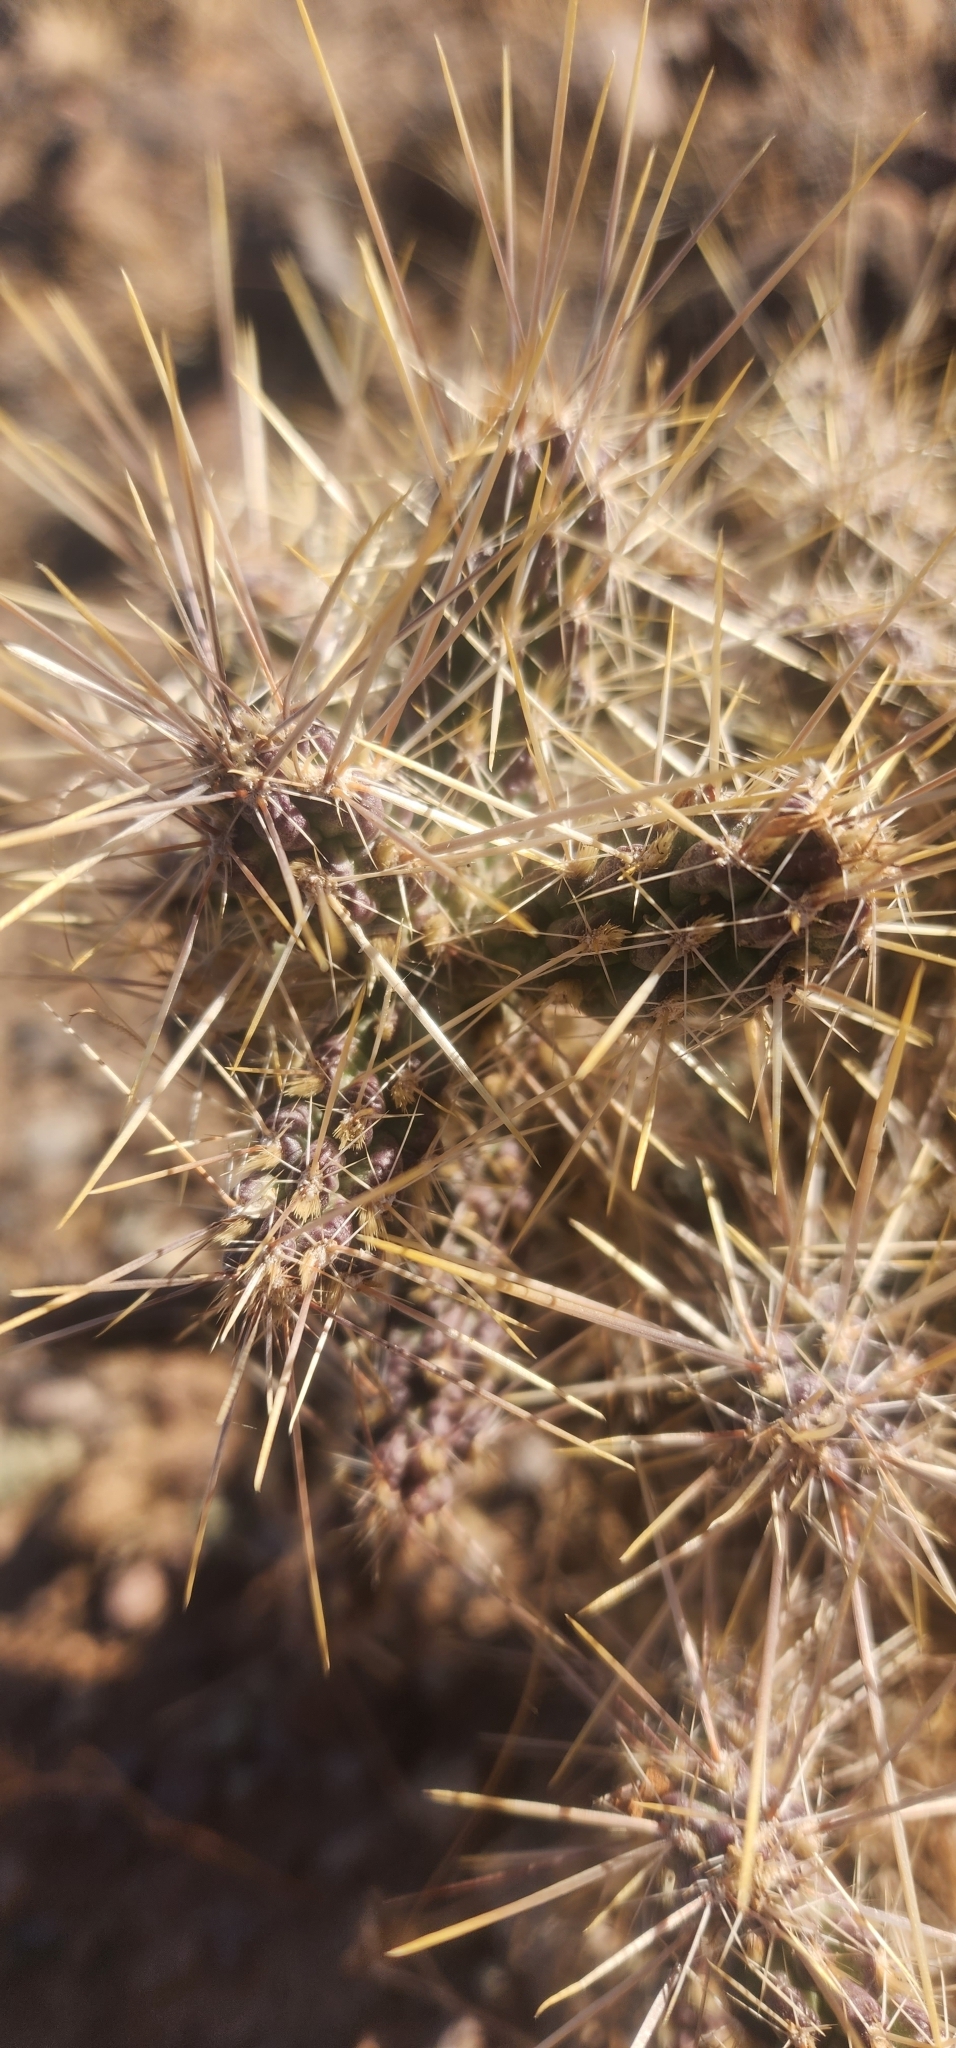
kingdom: Plantae
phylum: Tracheophyta
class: Magnoliopsida
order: Caryophyllales
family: Cactaceae
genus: Cylindropuntia
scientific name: Cylindropuntia fulgida
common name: Jumping cholla
